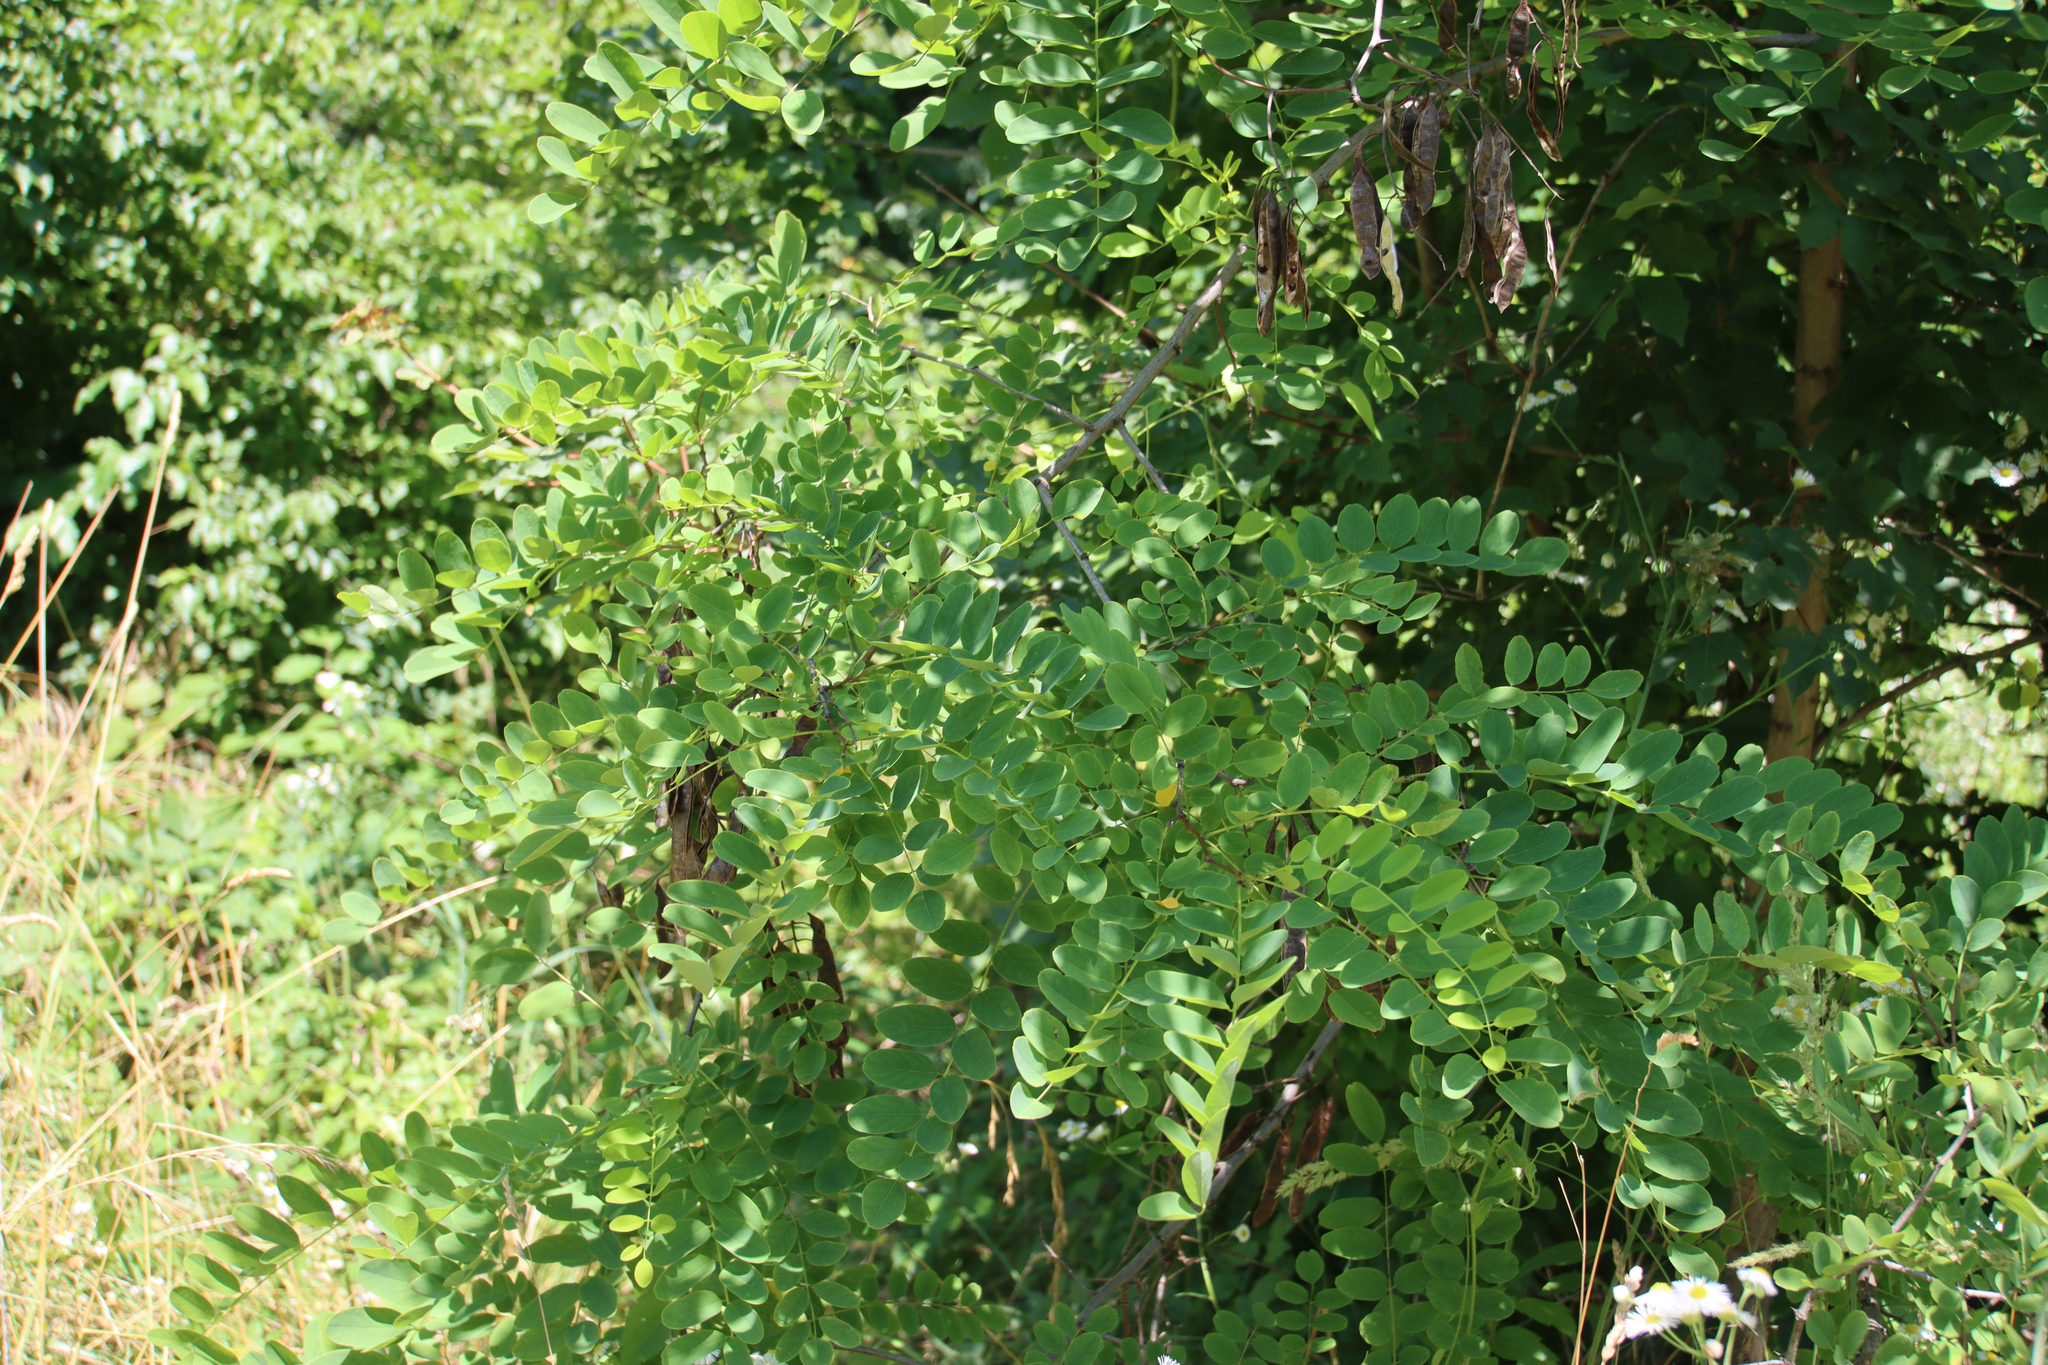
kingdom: Plantae
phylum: Tracheophyta
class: Magnoliopsida
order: Fabales
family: Fabaceae
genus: Robinia
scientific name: Robinia pseudoacacia
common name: Black locust
